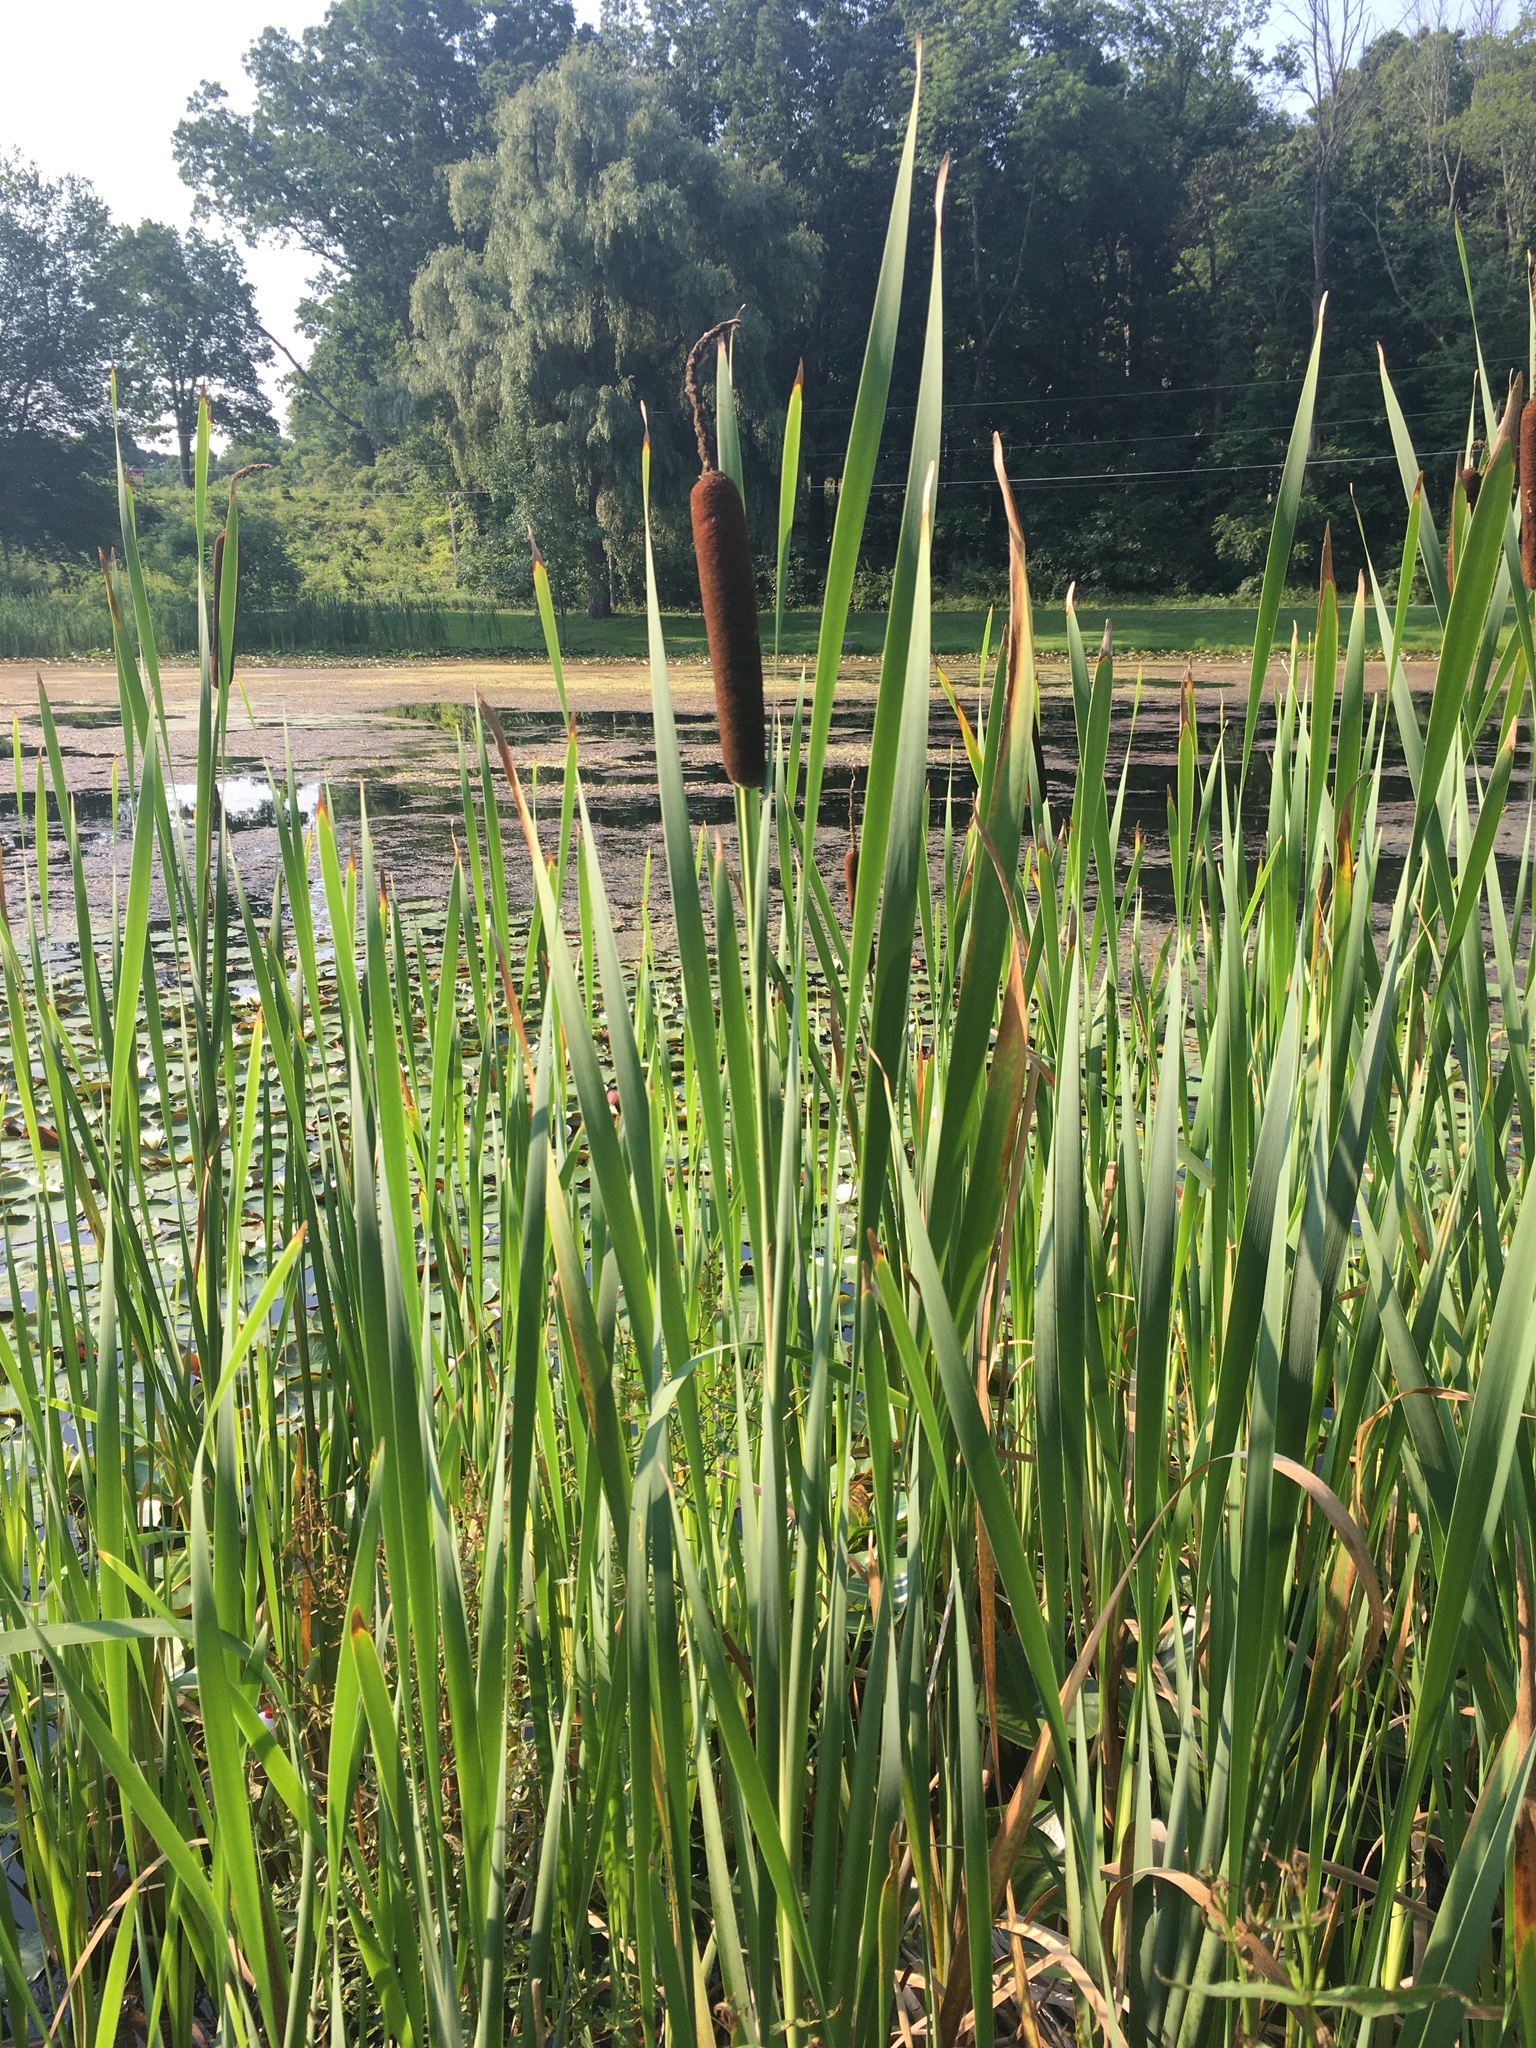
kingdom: Plantae
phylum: Tracheophyta
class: Liliopsida
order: Poales
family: Typhaceae
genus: Typha
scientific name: Typha latifolia
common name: Broadleaf cattail
